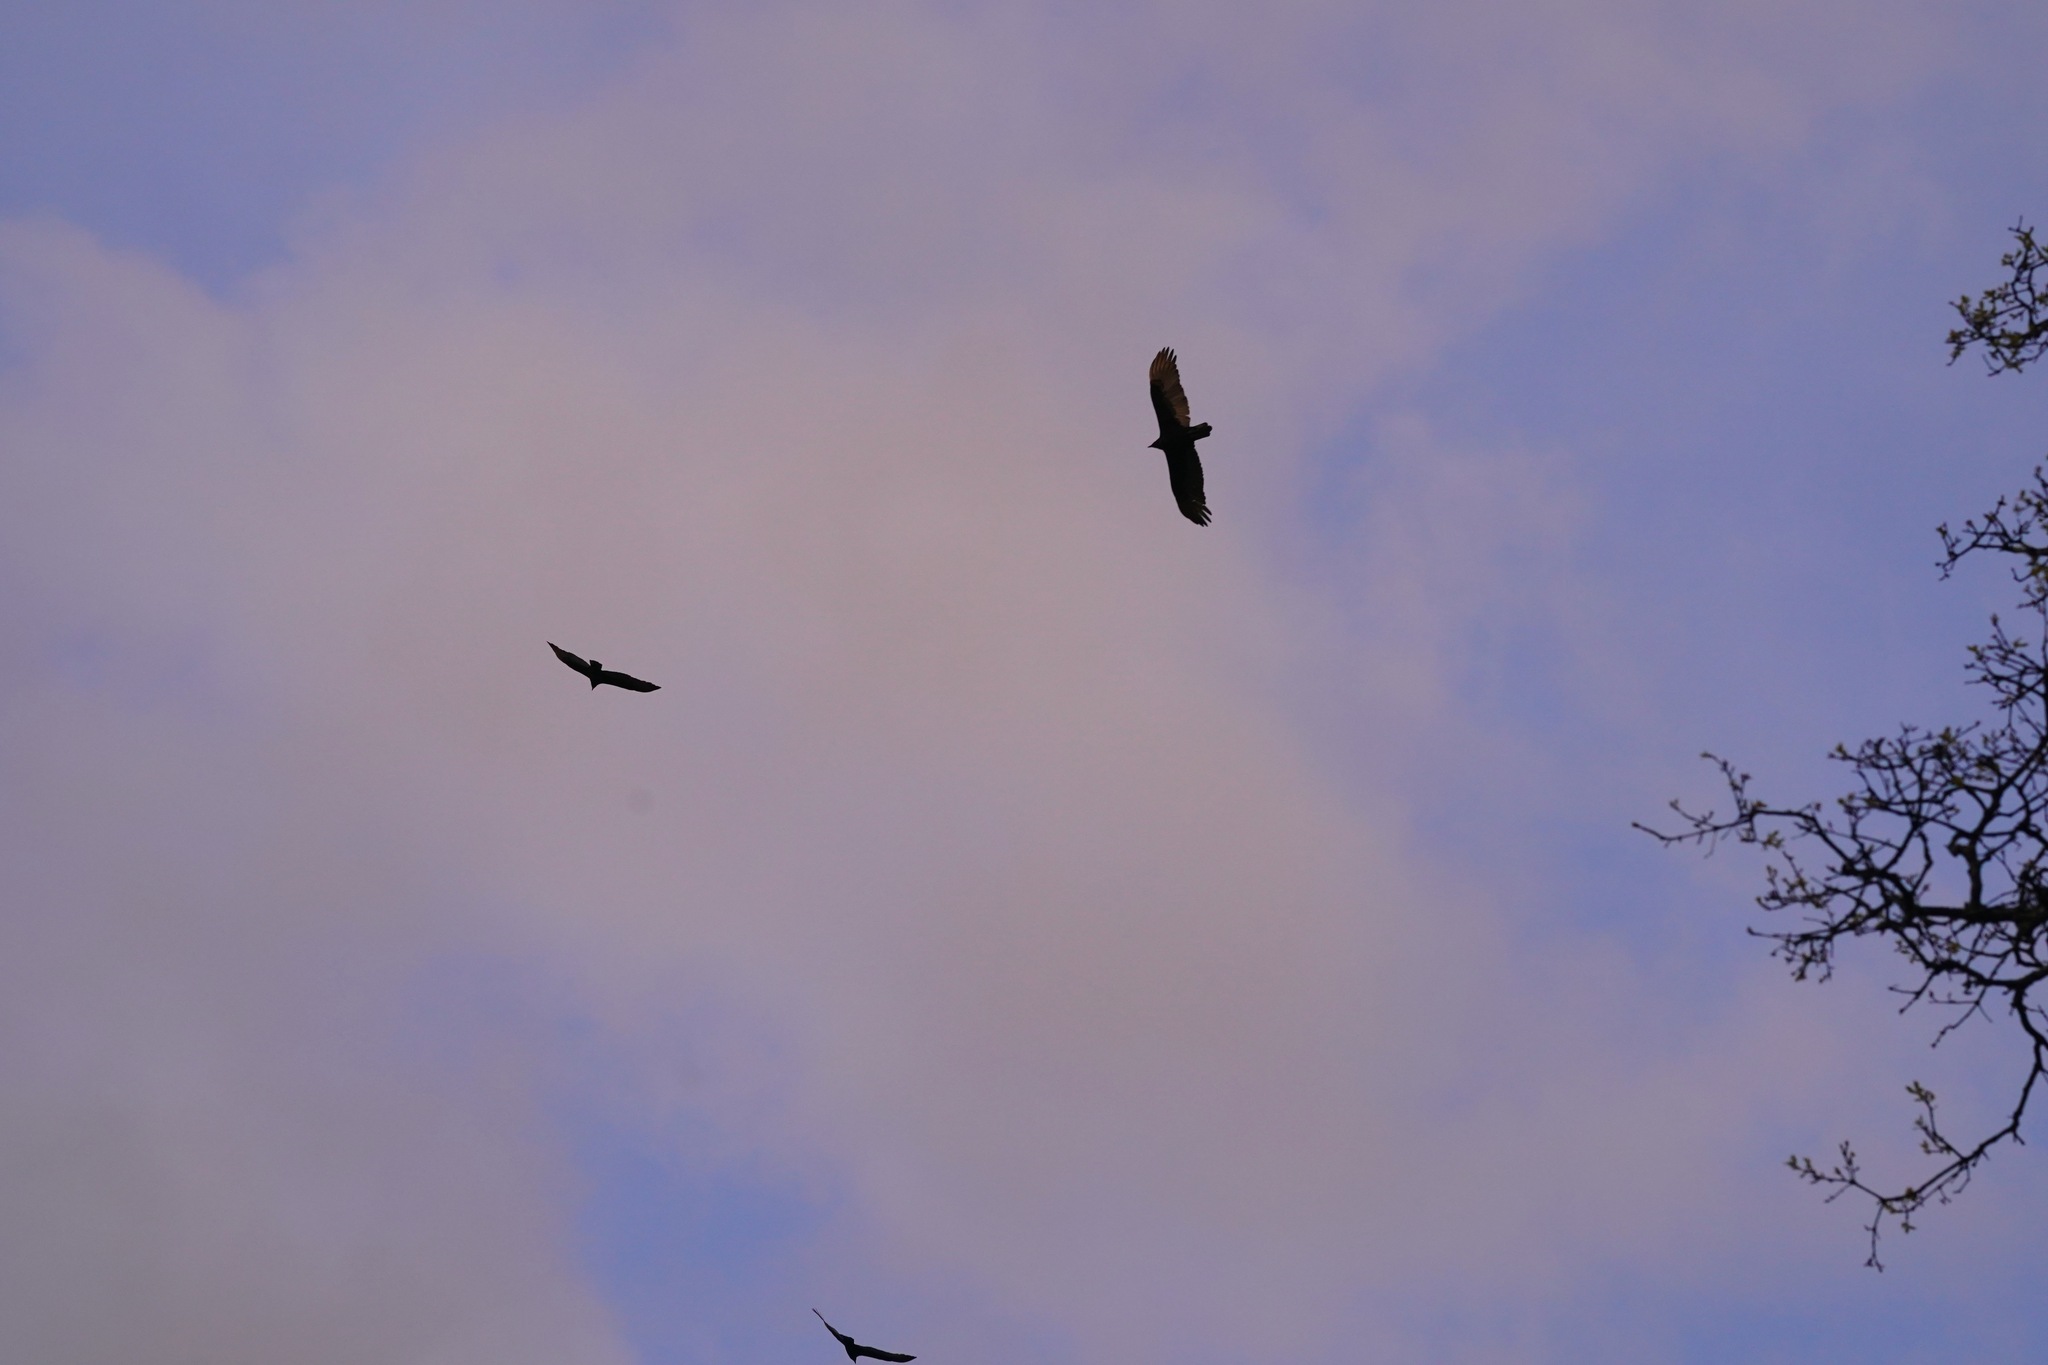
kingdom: Animalia
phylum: Chordata
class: Aves
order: Accipitriformes
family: Cathartidae
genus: Cathartes
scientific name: Cathartes aura
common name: Turkey vulture
